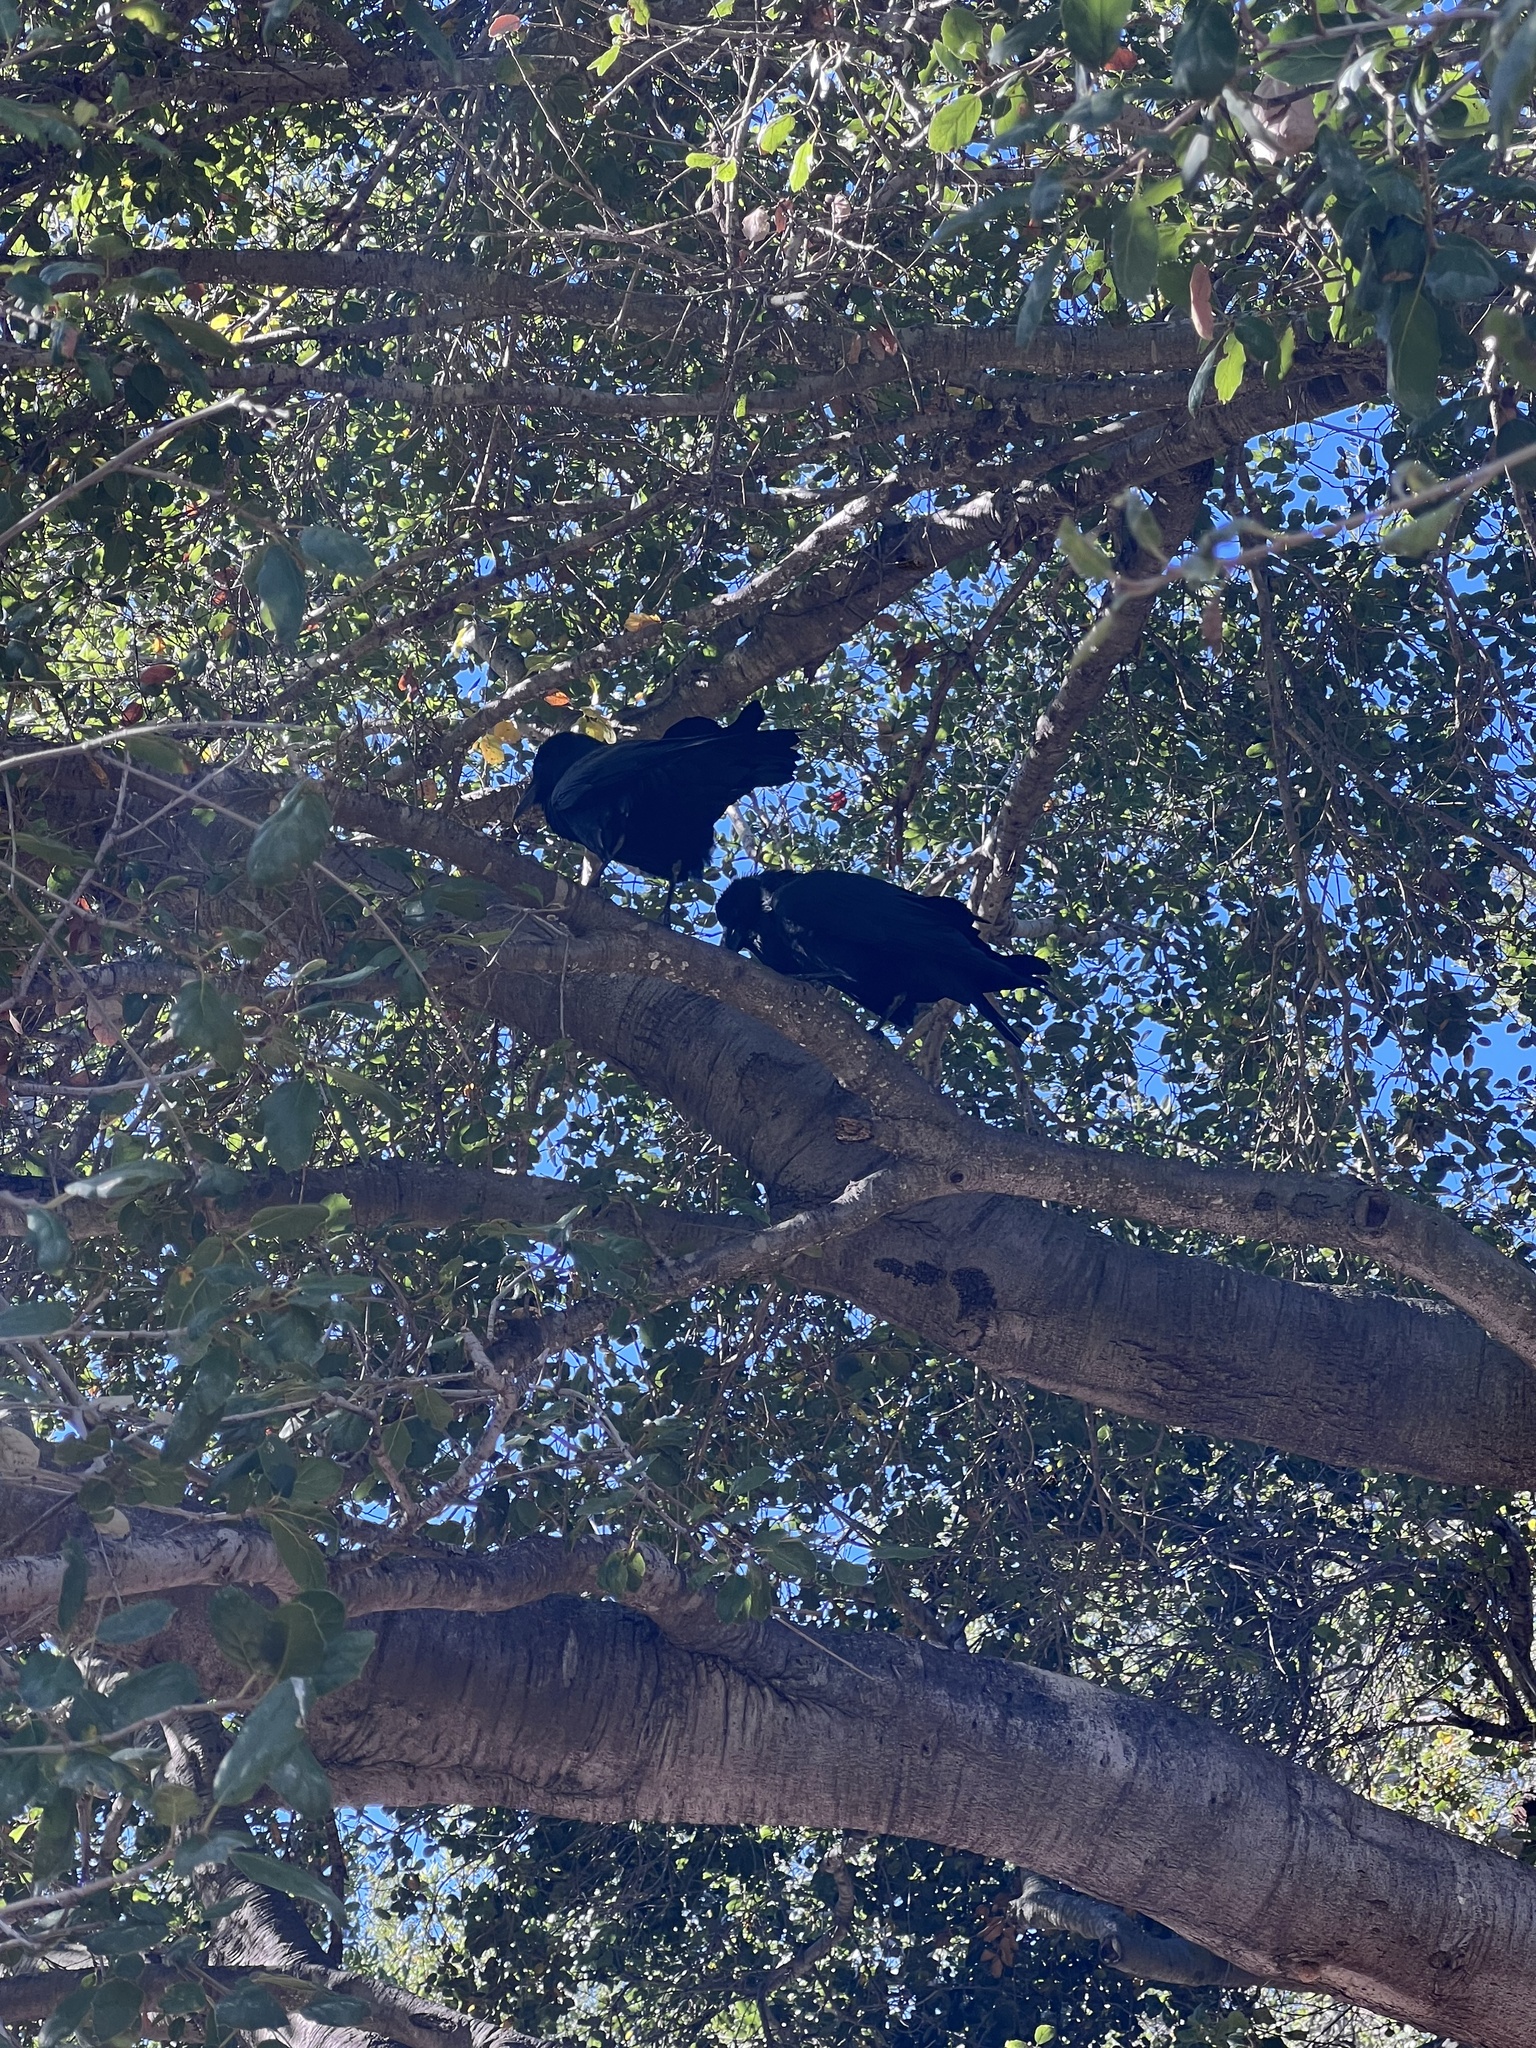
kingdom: Animalia
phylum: Chordata
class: Aves
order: Passeriformes
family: Corvidae
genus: Corvus
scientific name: Corvus corax
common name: Common raven
